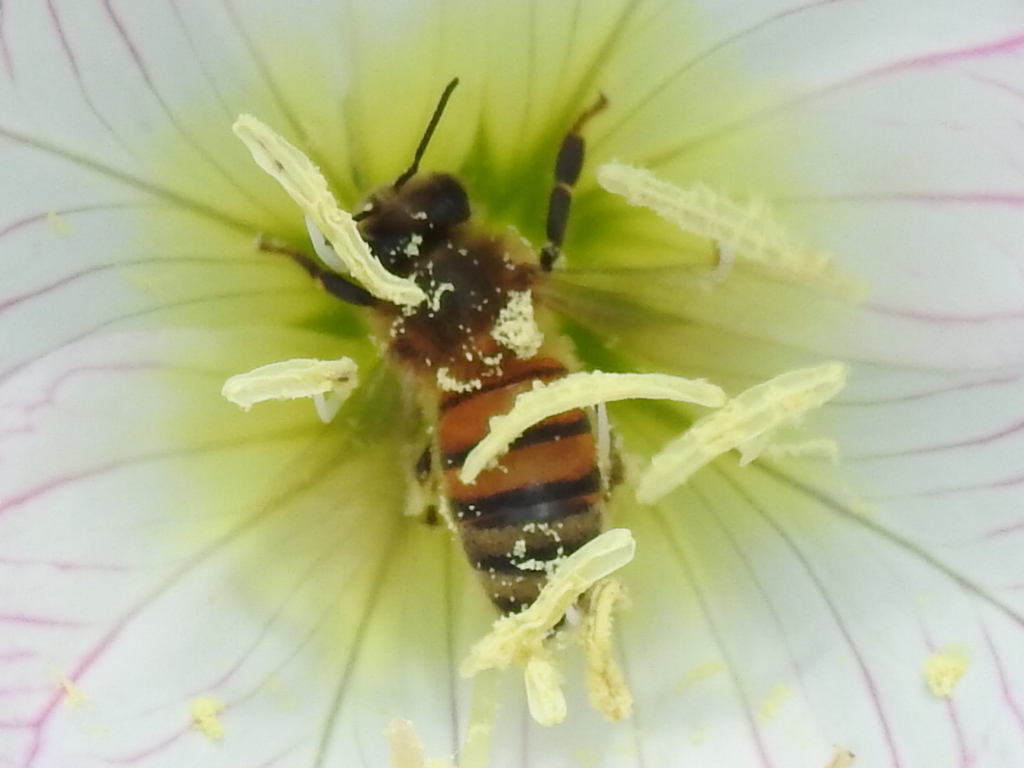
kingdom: Animalia
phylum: Arthropoda
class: Insecta
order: Hymenoptera
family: Apidae
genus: Apis
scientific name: Apis mellifera
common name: Honey bee
